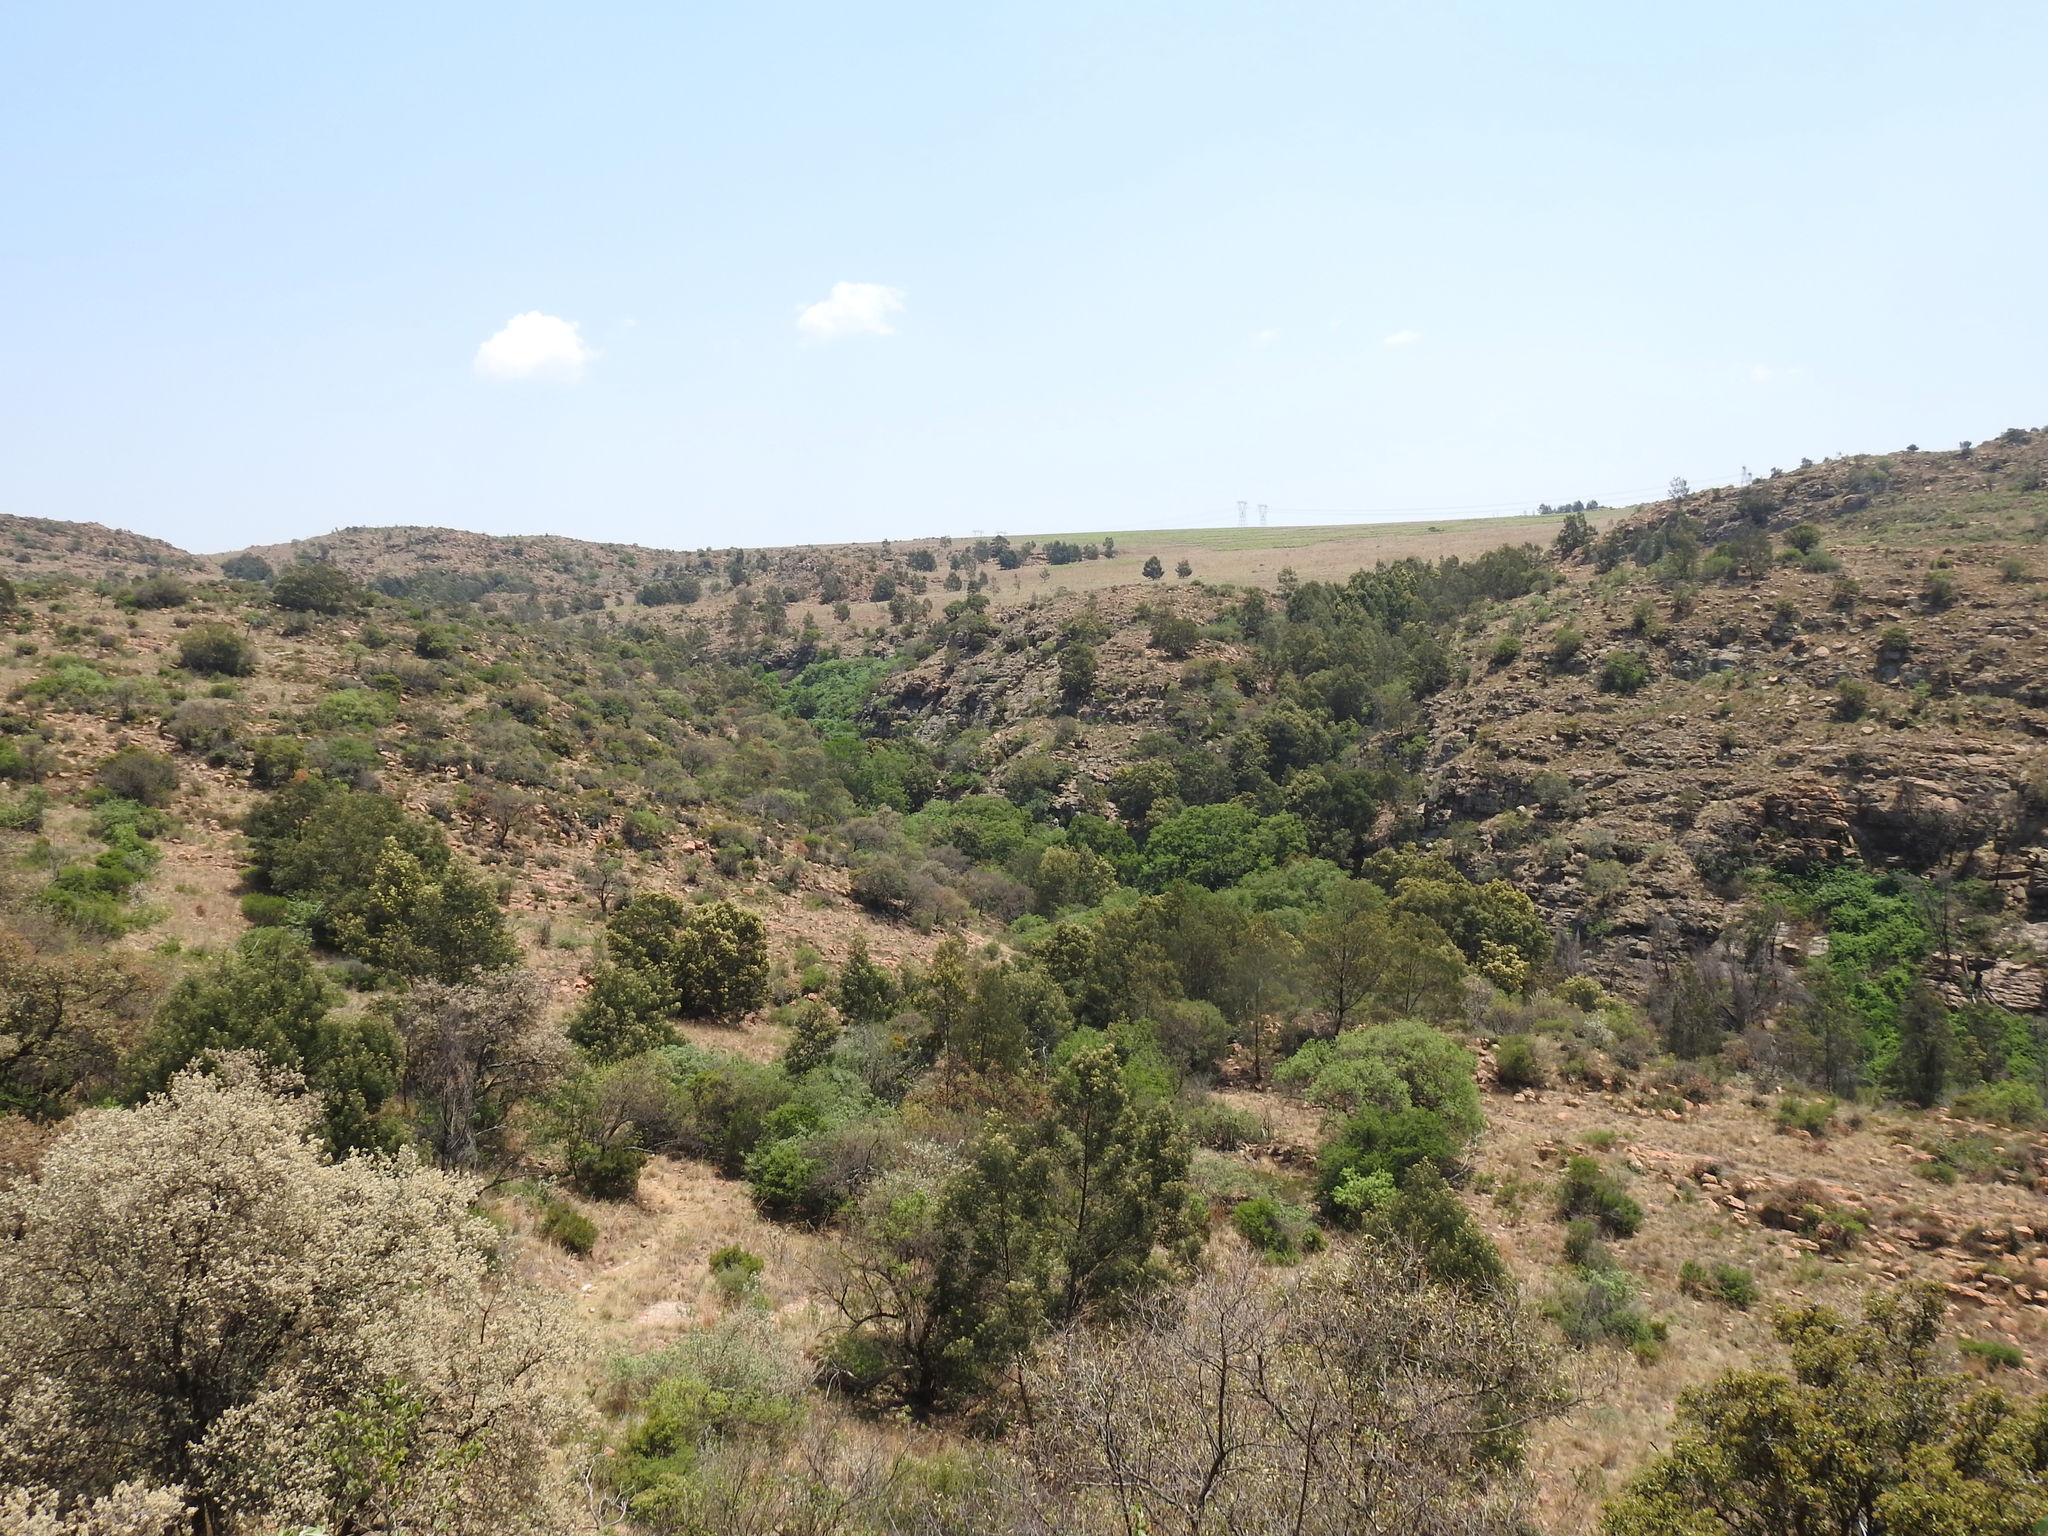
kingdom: Plantae
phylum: Tracheophyta
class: Magnoliopsida
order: Fabales
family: Fabaceae
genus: Acacia
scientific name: Acacia mearnsii
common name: Black wattle
